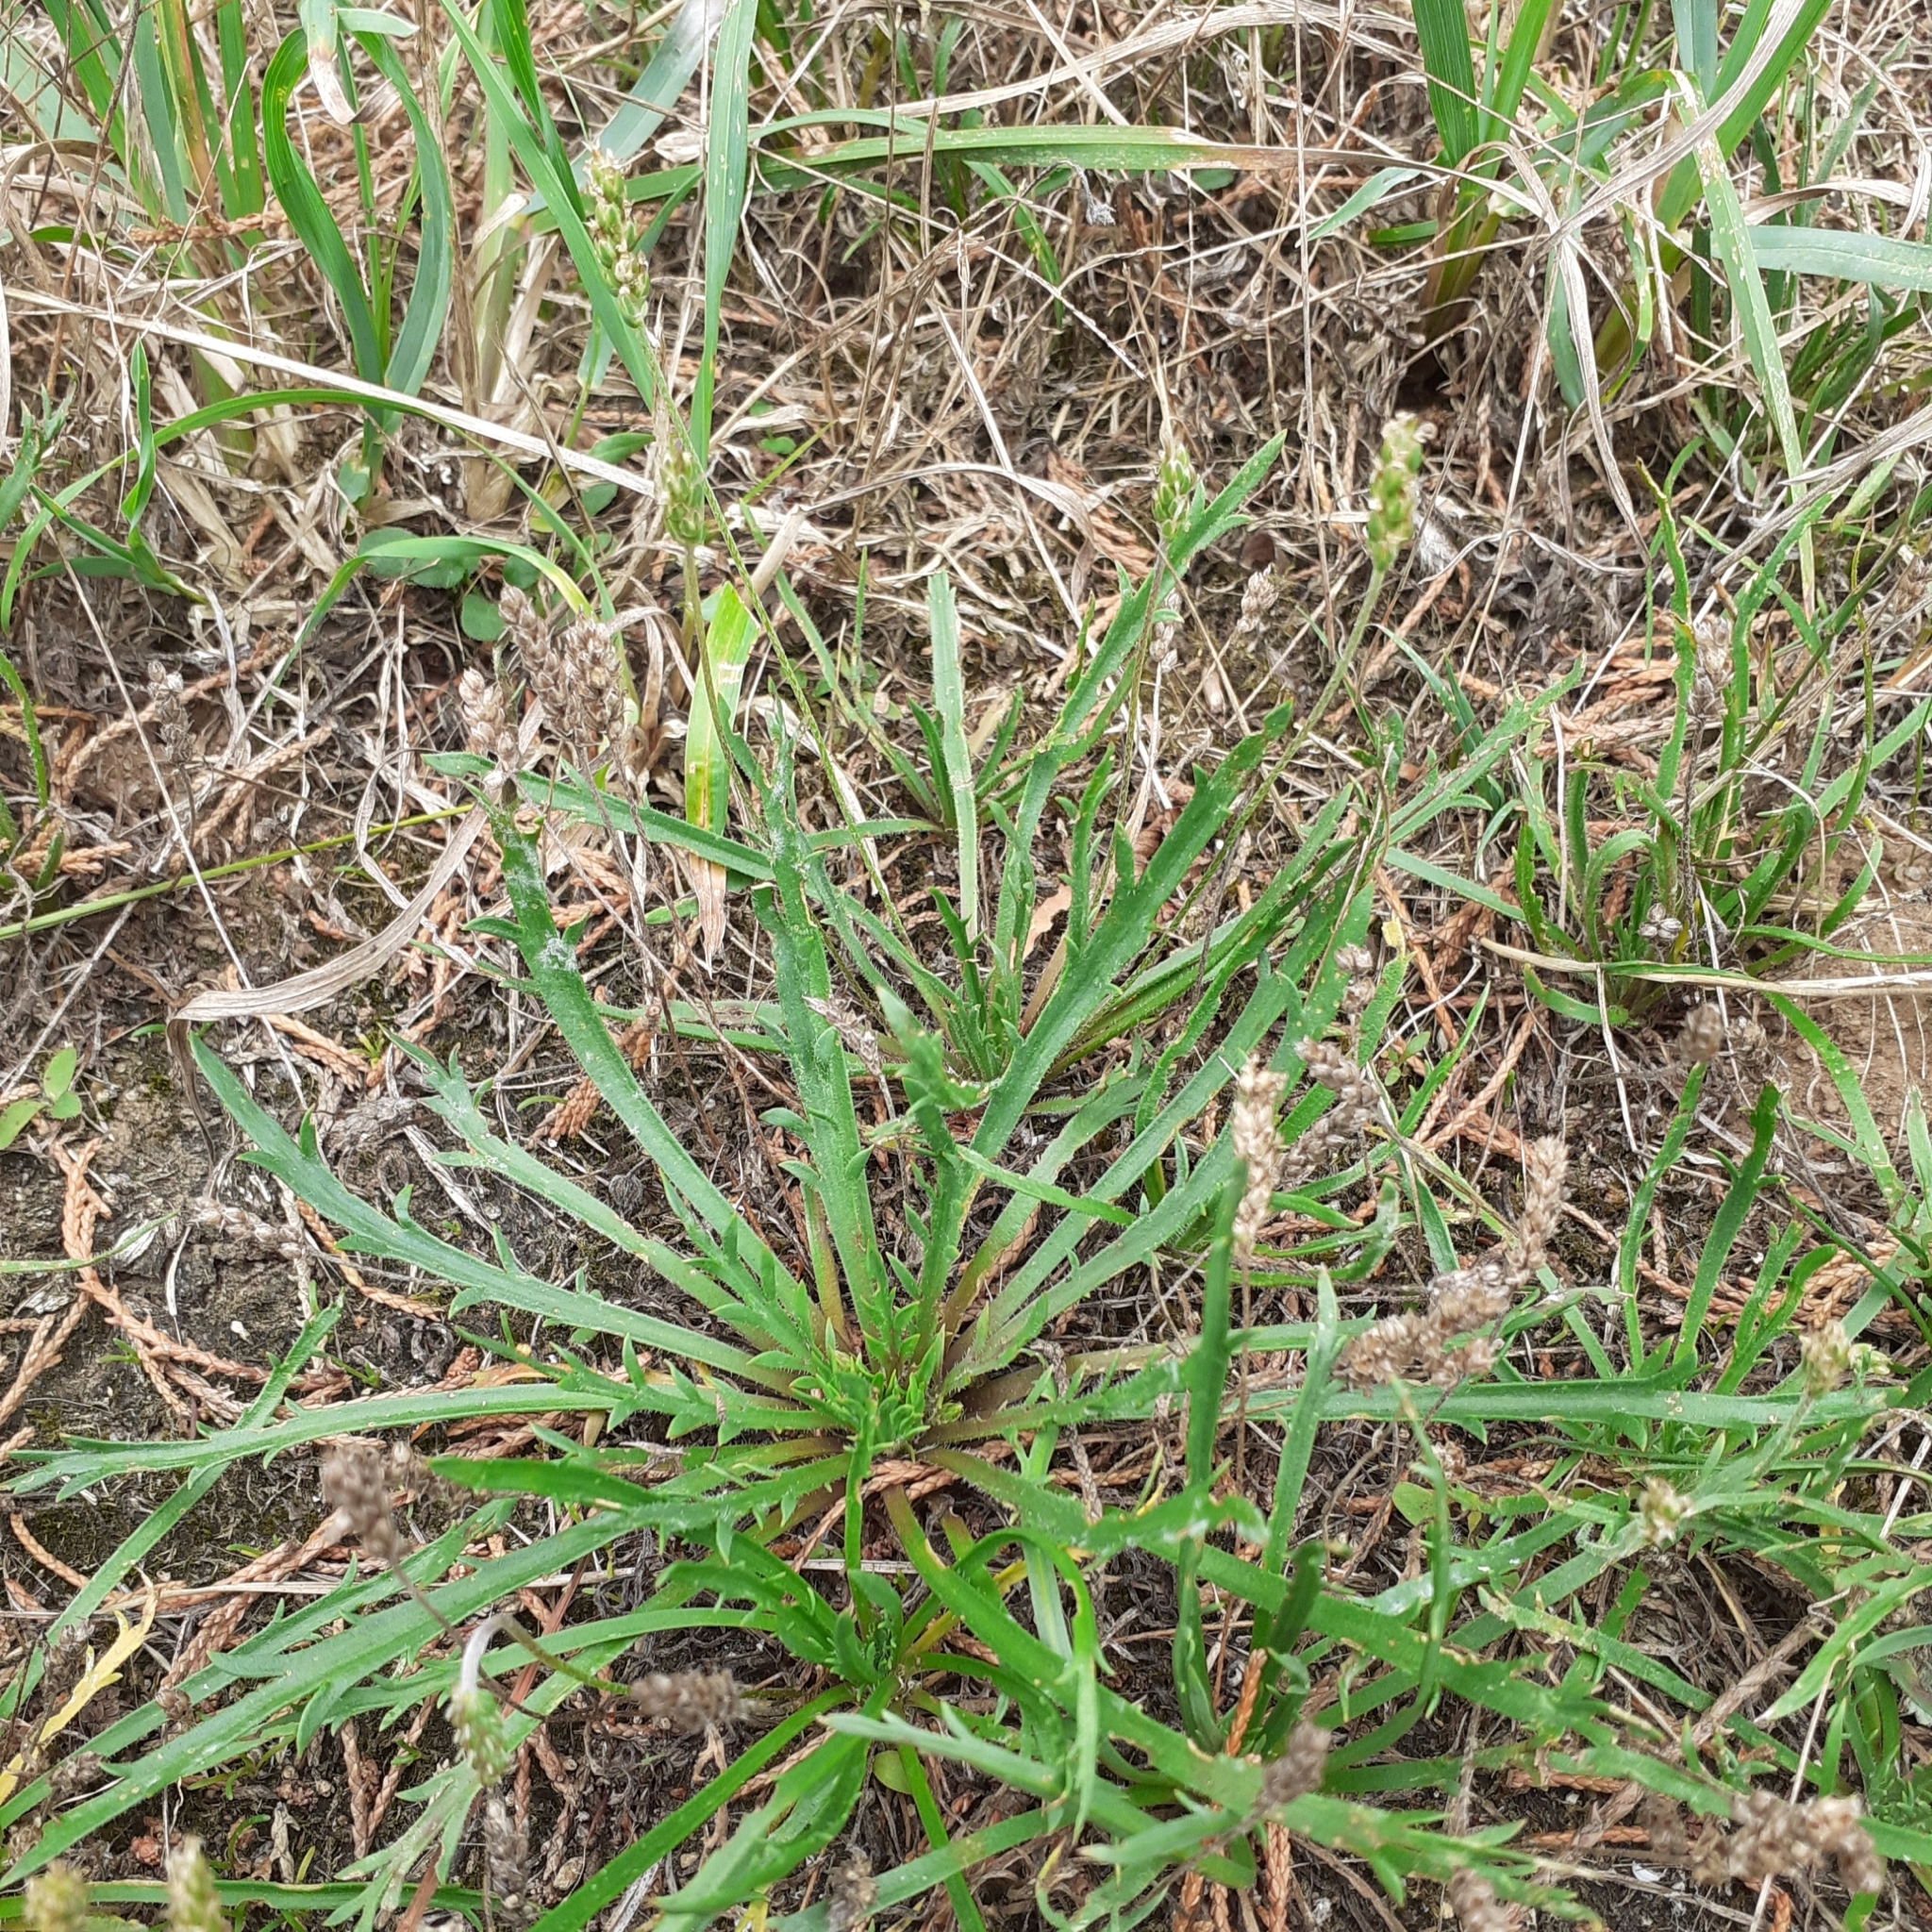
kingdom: Plantae
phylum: Tracheophyta
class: Magnoliopsida
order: Lamiales
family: Plantaginaceae
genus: Plantago
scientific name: Plantago coronopus
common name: Buck's-horn plantain
